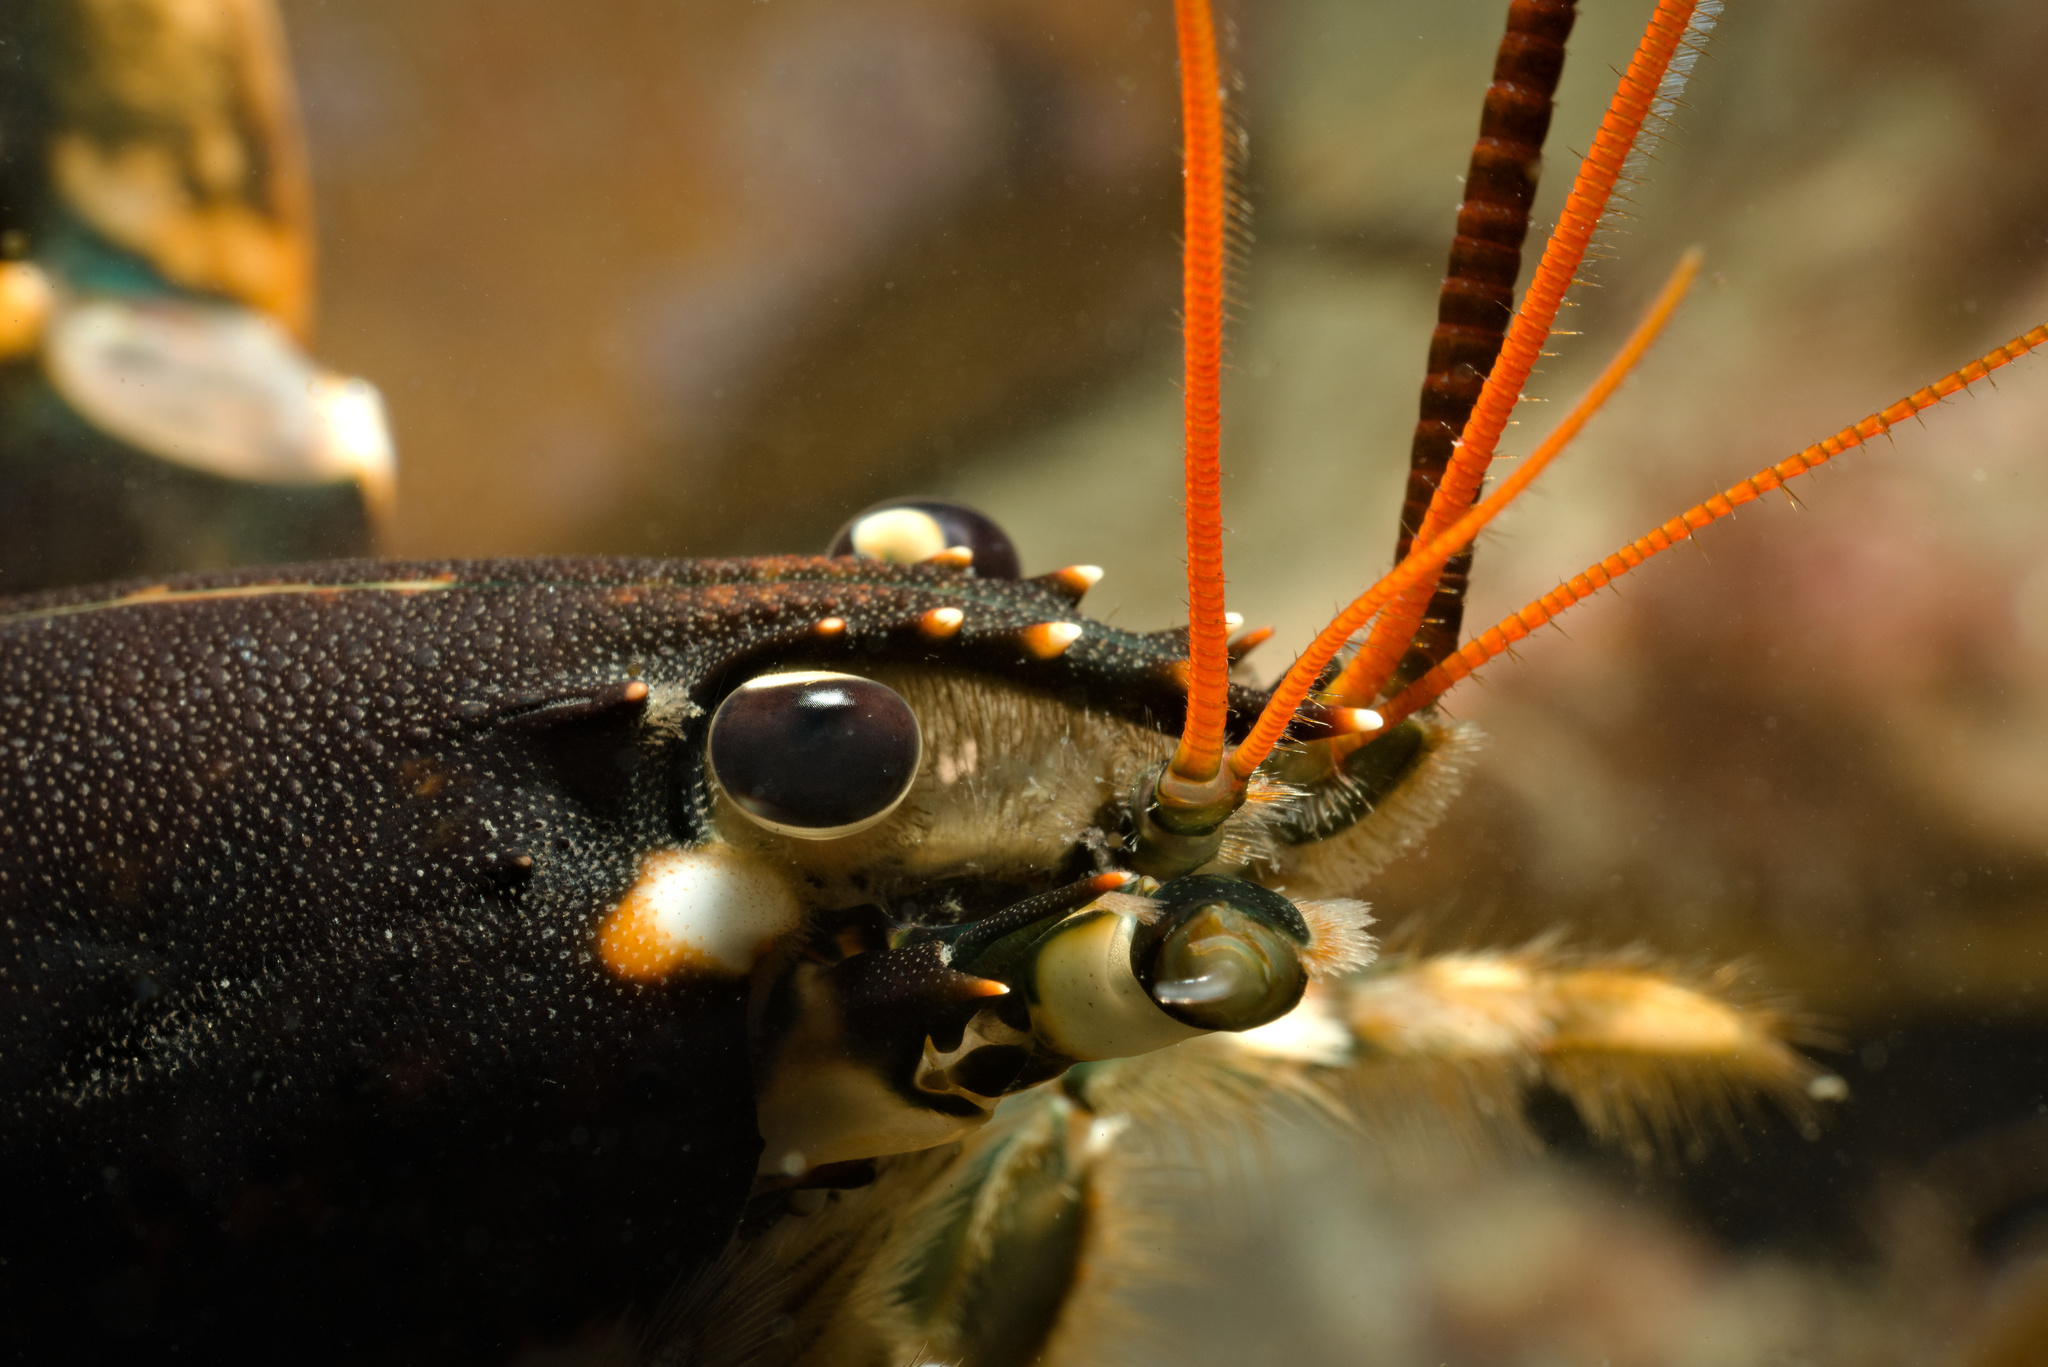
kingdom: Animalia
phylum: Arthropoda
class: Malacostraca
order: Decapoda
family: Nephropidae
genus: Homarus
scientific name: Homarus gammarus
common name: European lobster
